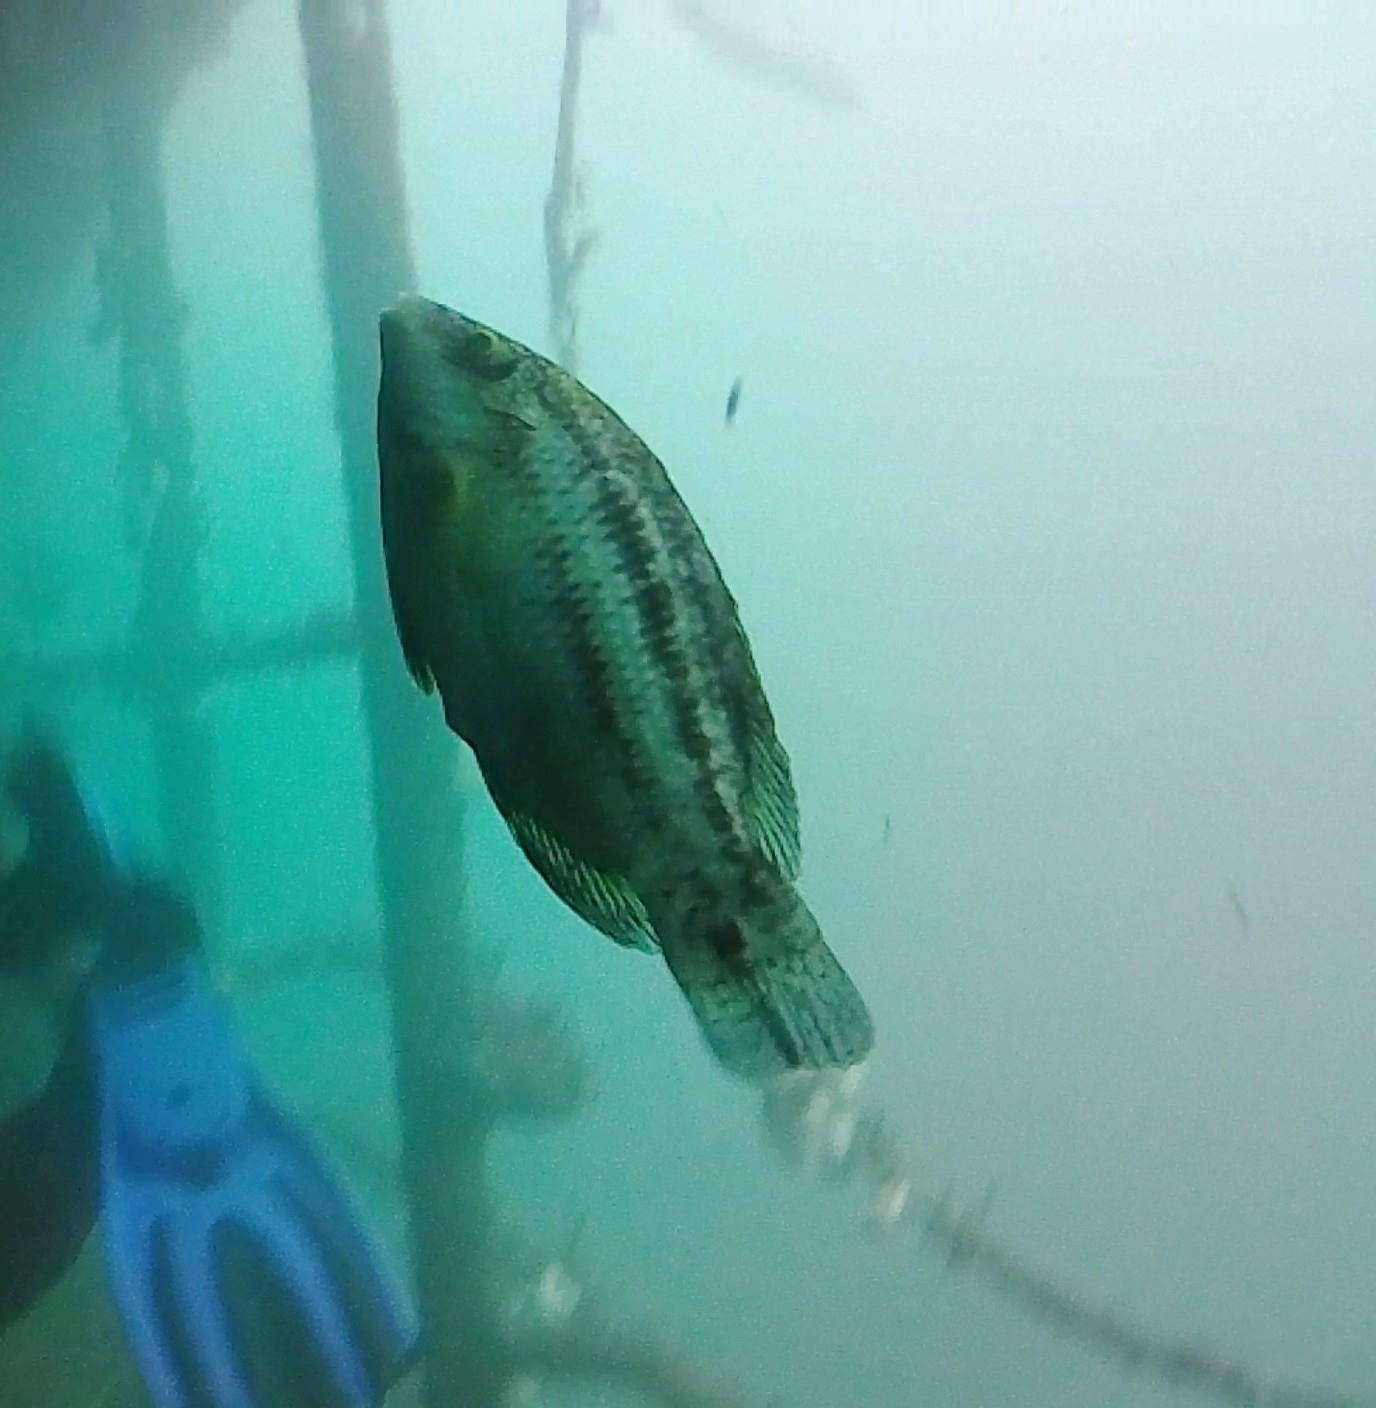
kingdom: Animalia
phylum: Chordata
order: Perciformes
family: Labridae
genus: Symphodus
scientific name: Symphodus bailloni
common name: Baillon's wrasse
